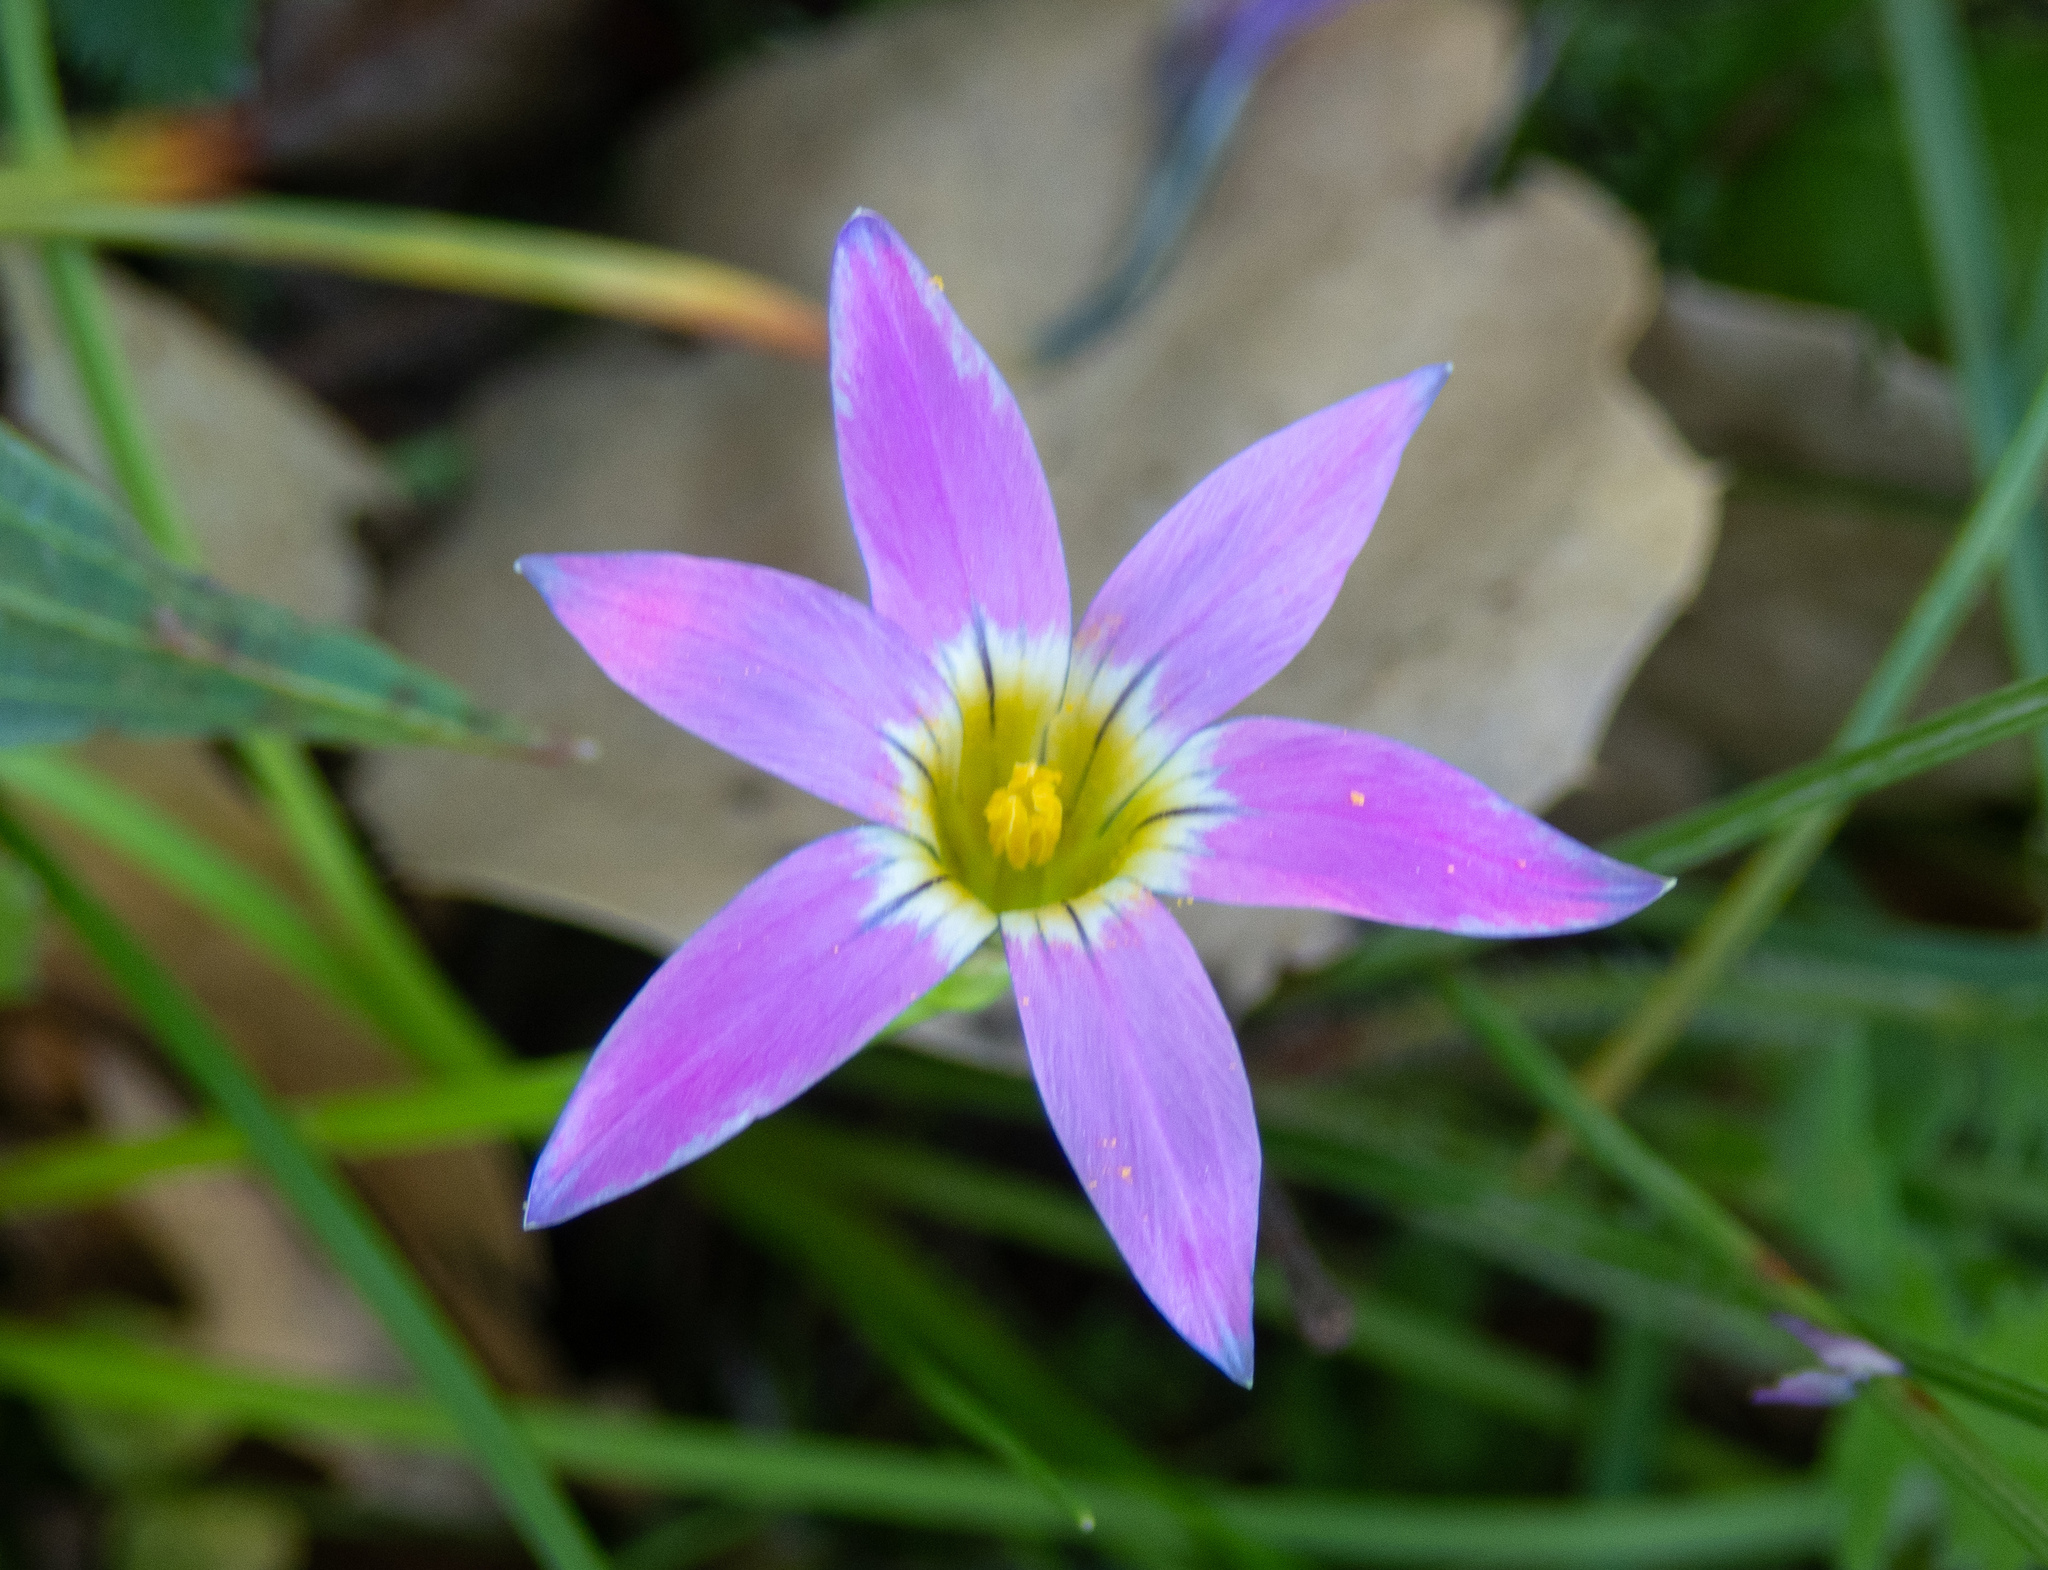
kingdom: Plantae
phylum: Tracheophyta
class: Liliopsida
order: Asparagales
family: Iridaceae
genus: Romulea
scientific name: Romulea rosea
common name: Oniongrass
